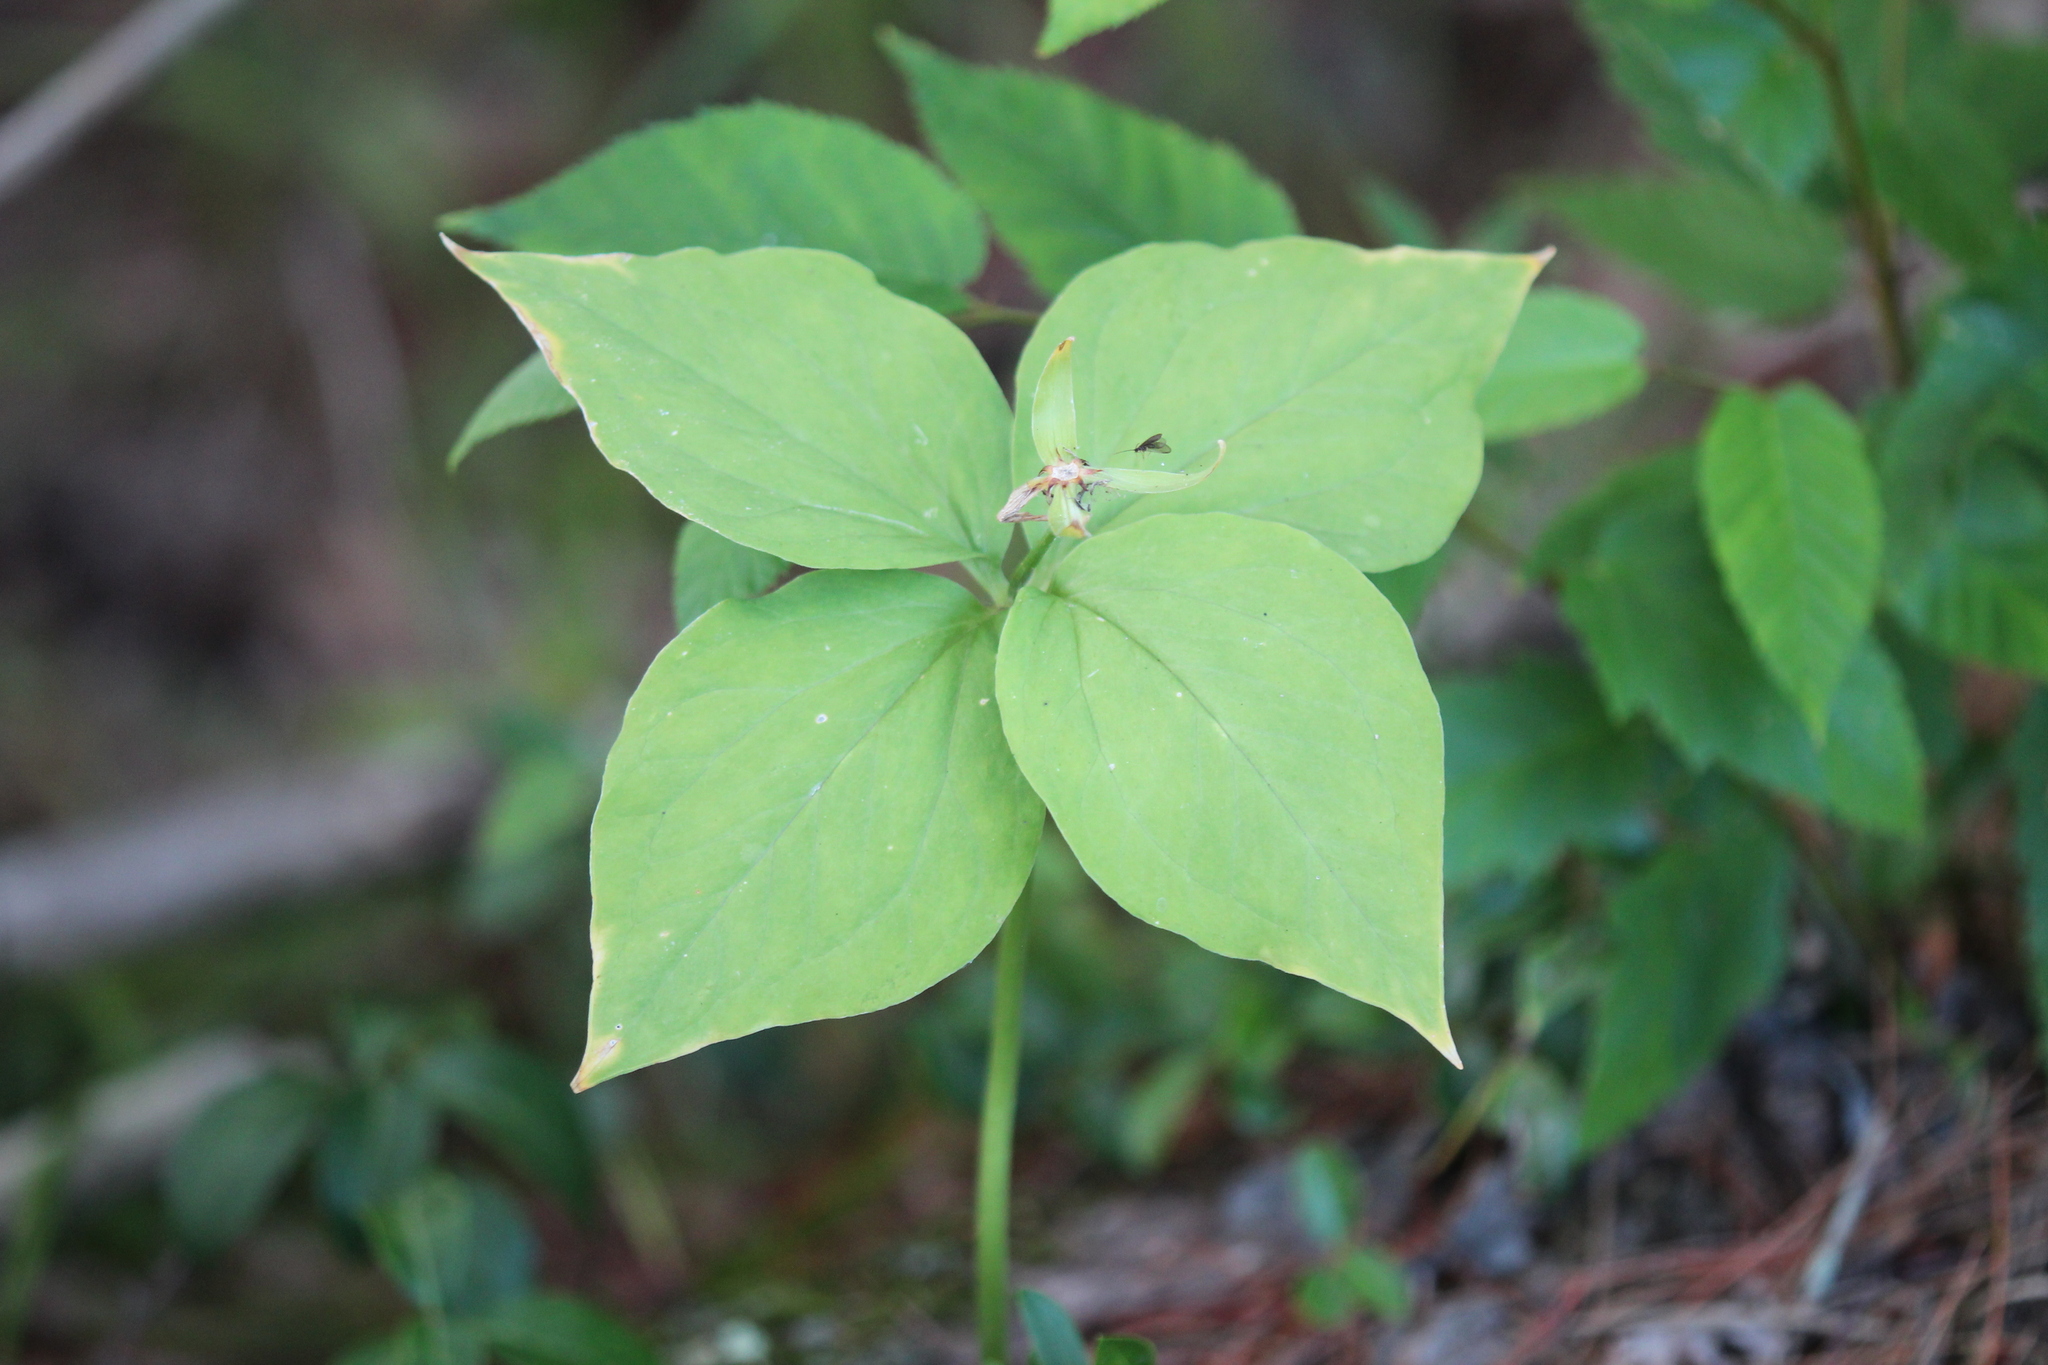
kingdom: Plantae
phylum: Tracheophyta
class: Liliopsida
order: Liliales
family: Melanthiaceae
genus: Trillium
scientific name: Trillium undulatum
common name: Paint trillium
